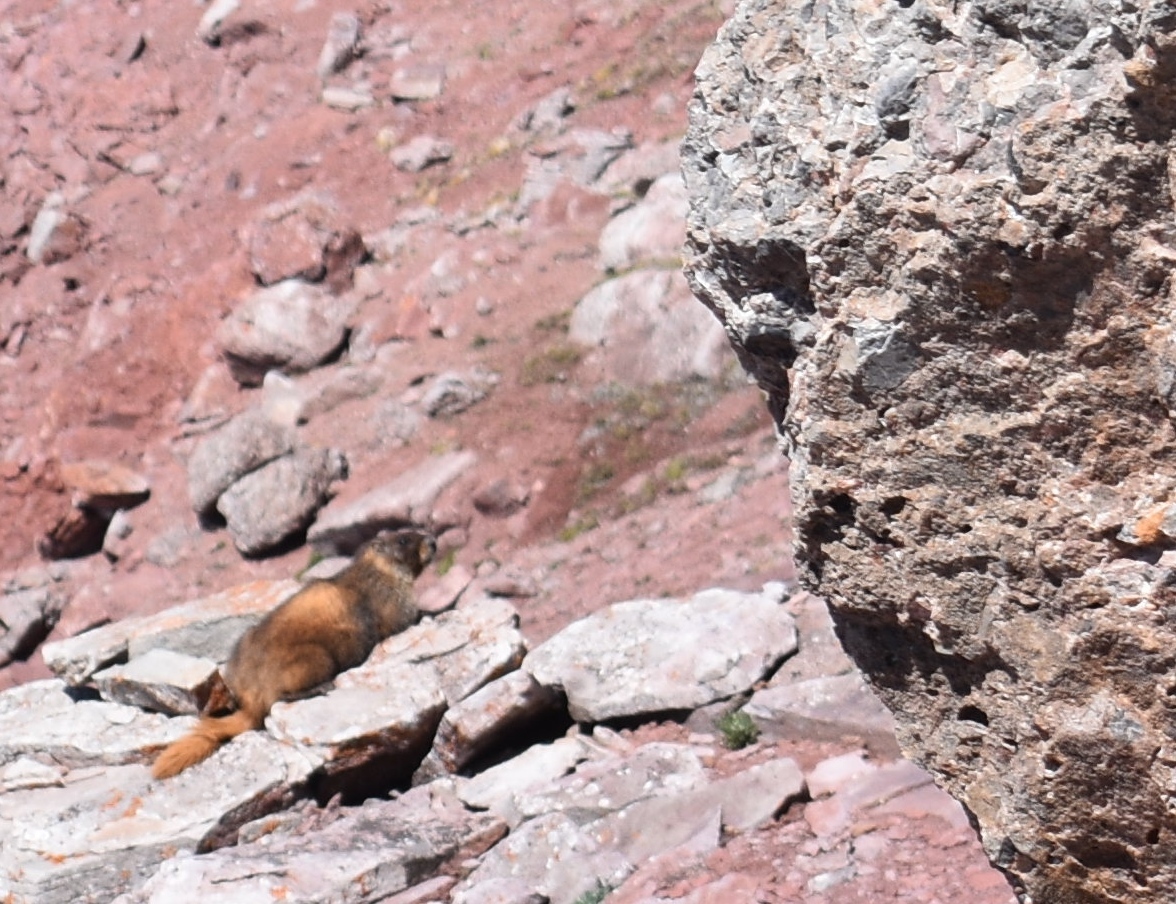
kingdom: Animalia
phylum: Chordata
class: Mammalia
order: Rodentia
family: Sciuridae
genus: Marmota
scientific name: Marmota flaviventris
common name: Yellow-bellied marmot
